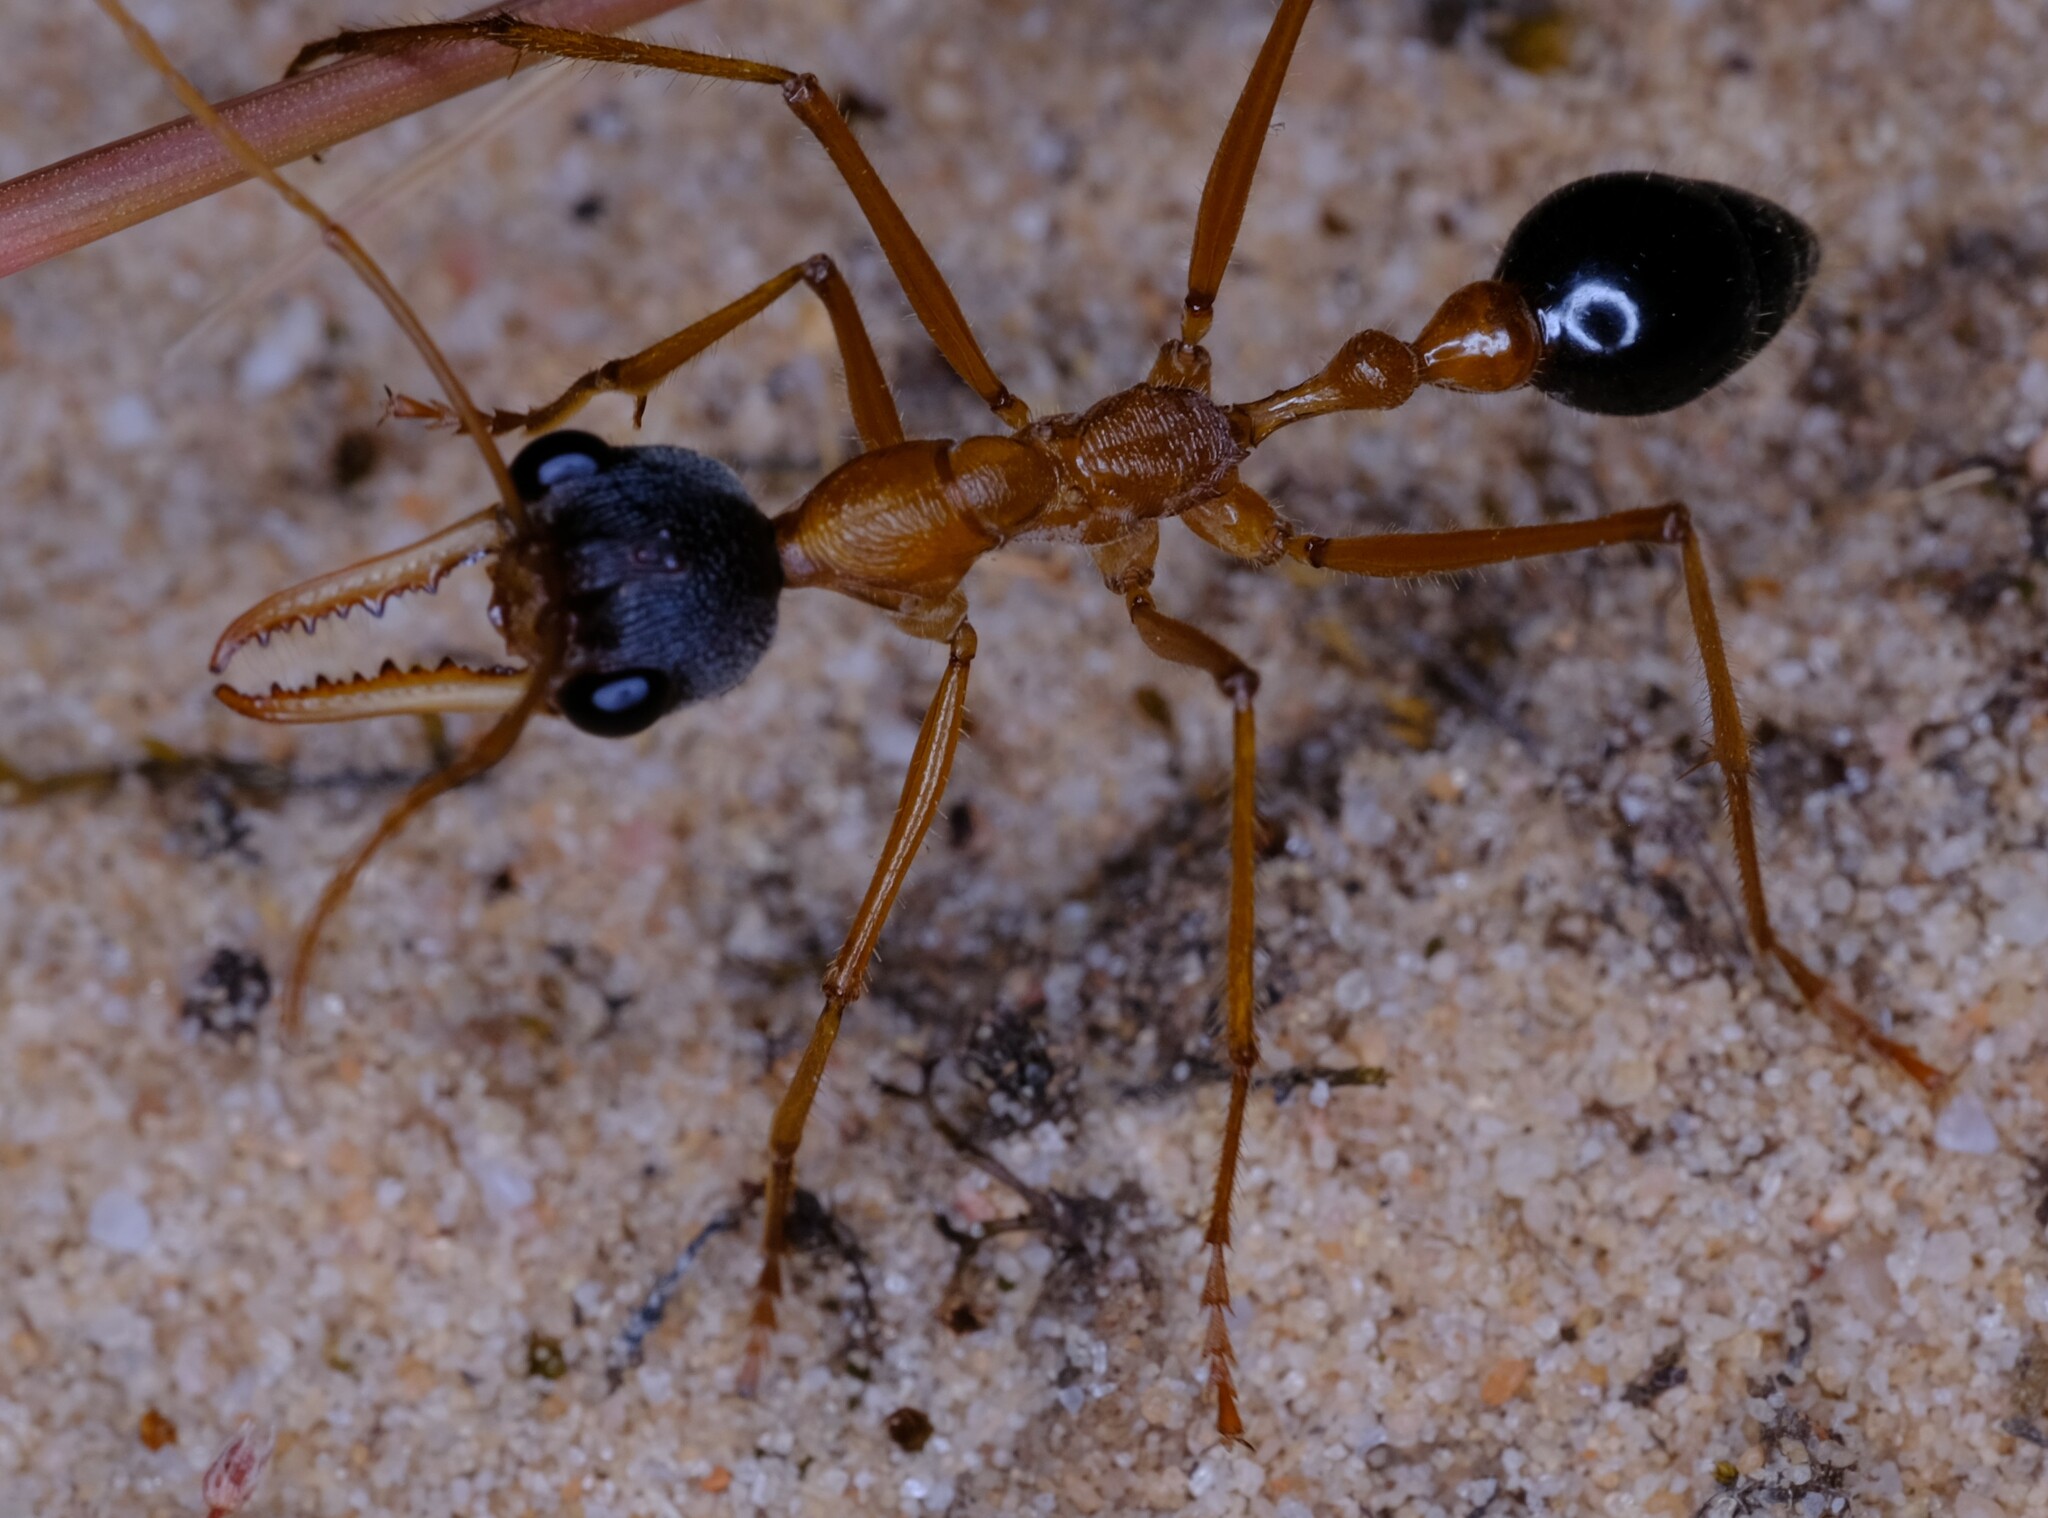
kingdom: Animalia
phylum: Arthropoda
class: Insecta
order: Hymenoptera
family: Formicidae
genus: Myrmecia
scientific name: Myrmecia desertorum
